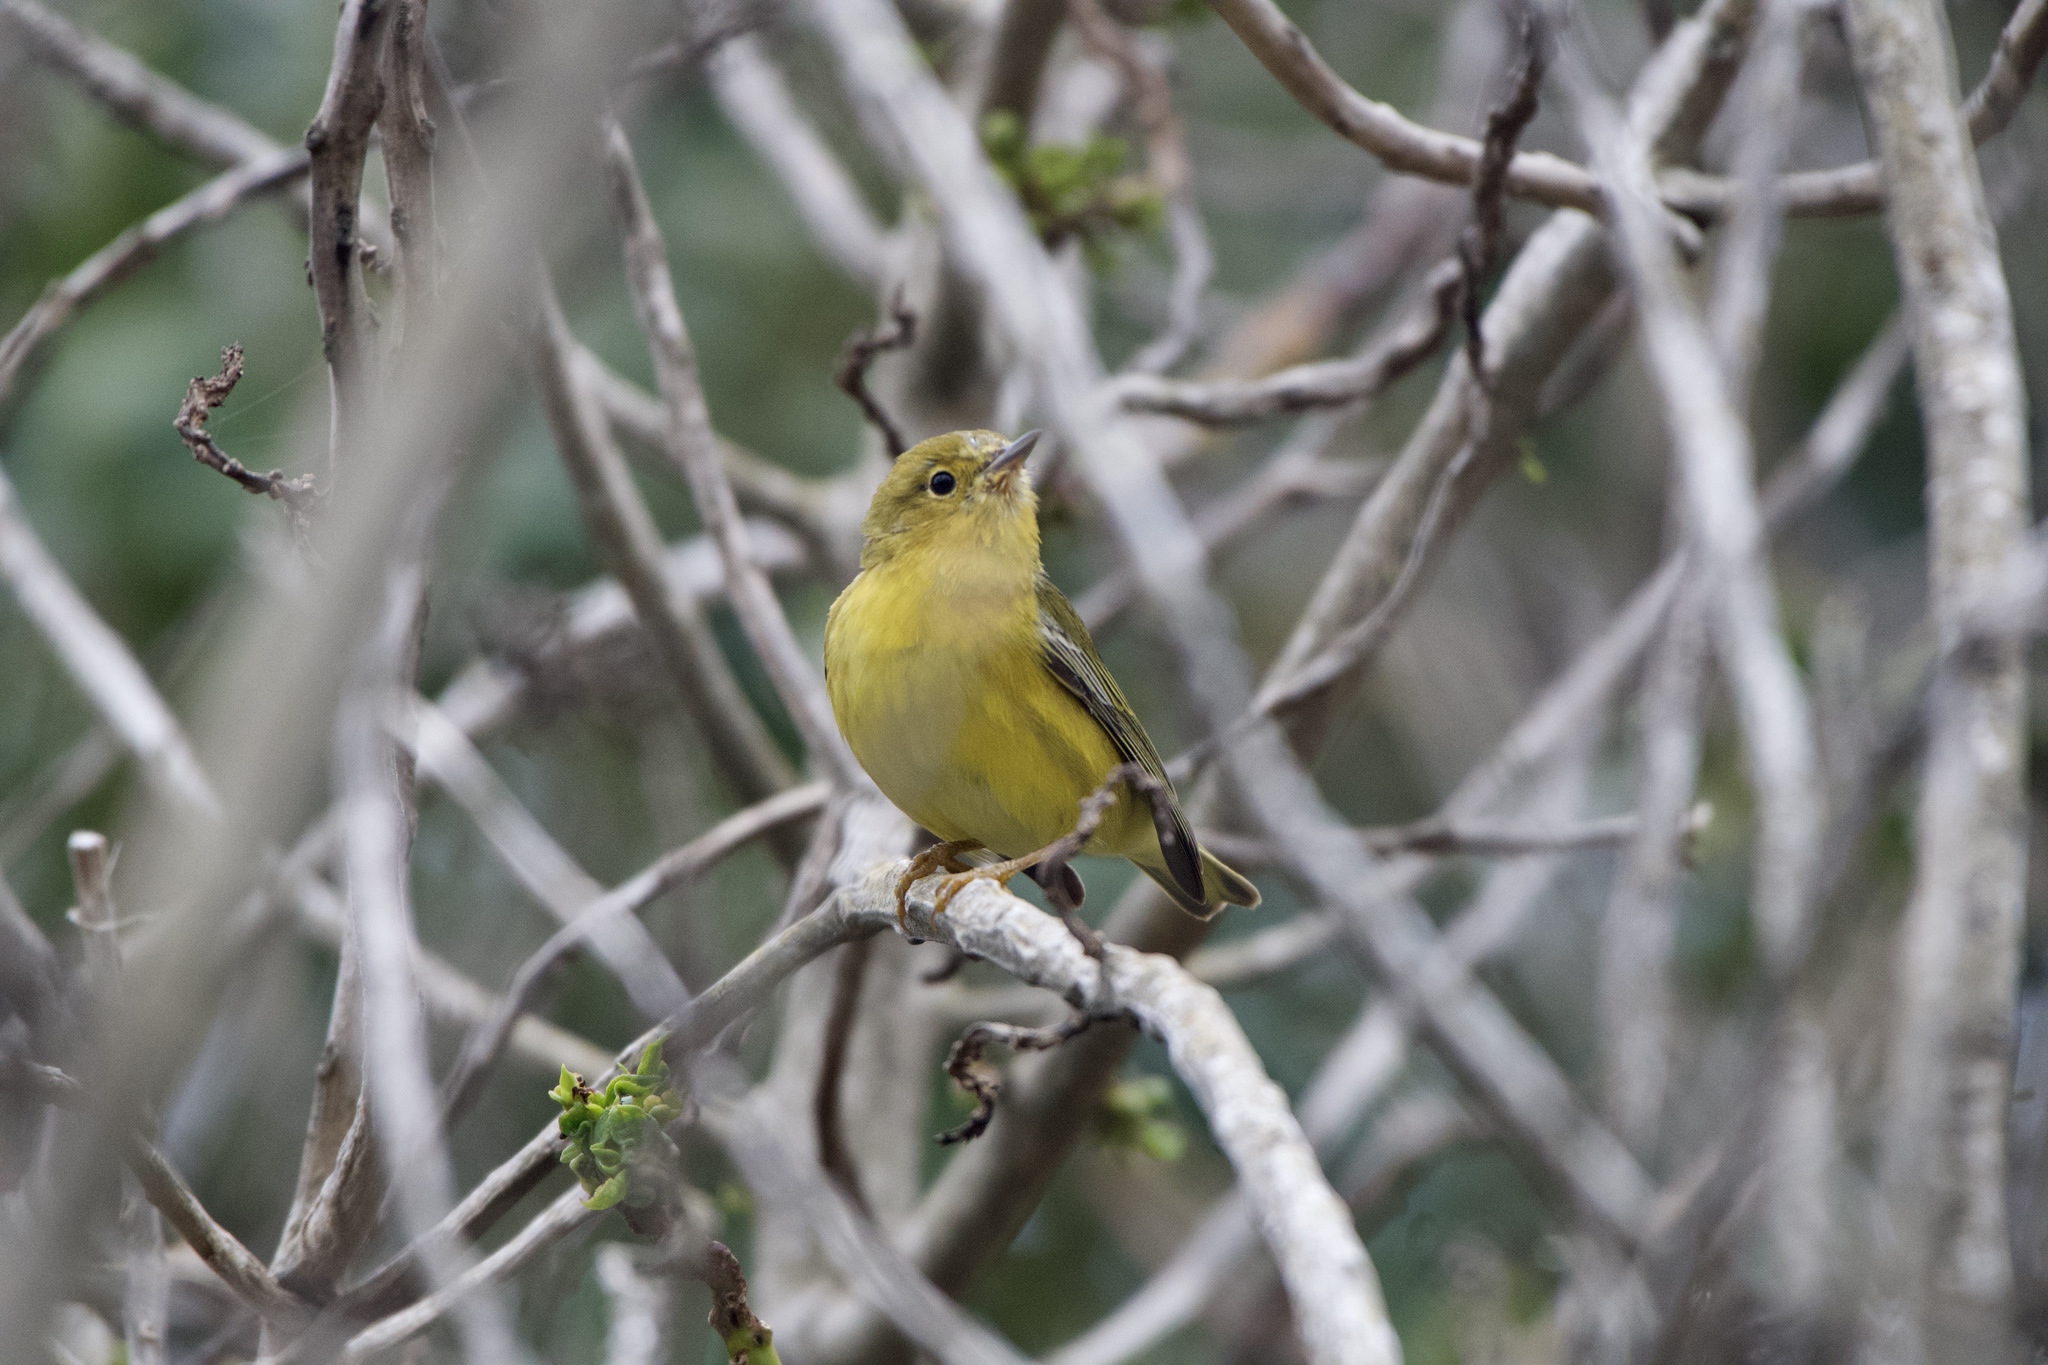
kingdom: Animalia
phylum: Chordata
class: Aves
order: Passeriformes
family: Parulidae
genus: Setophaga
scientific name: Setophaga petechia
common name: Yellow warbler
